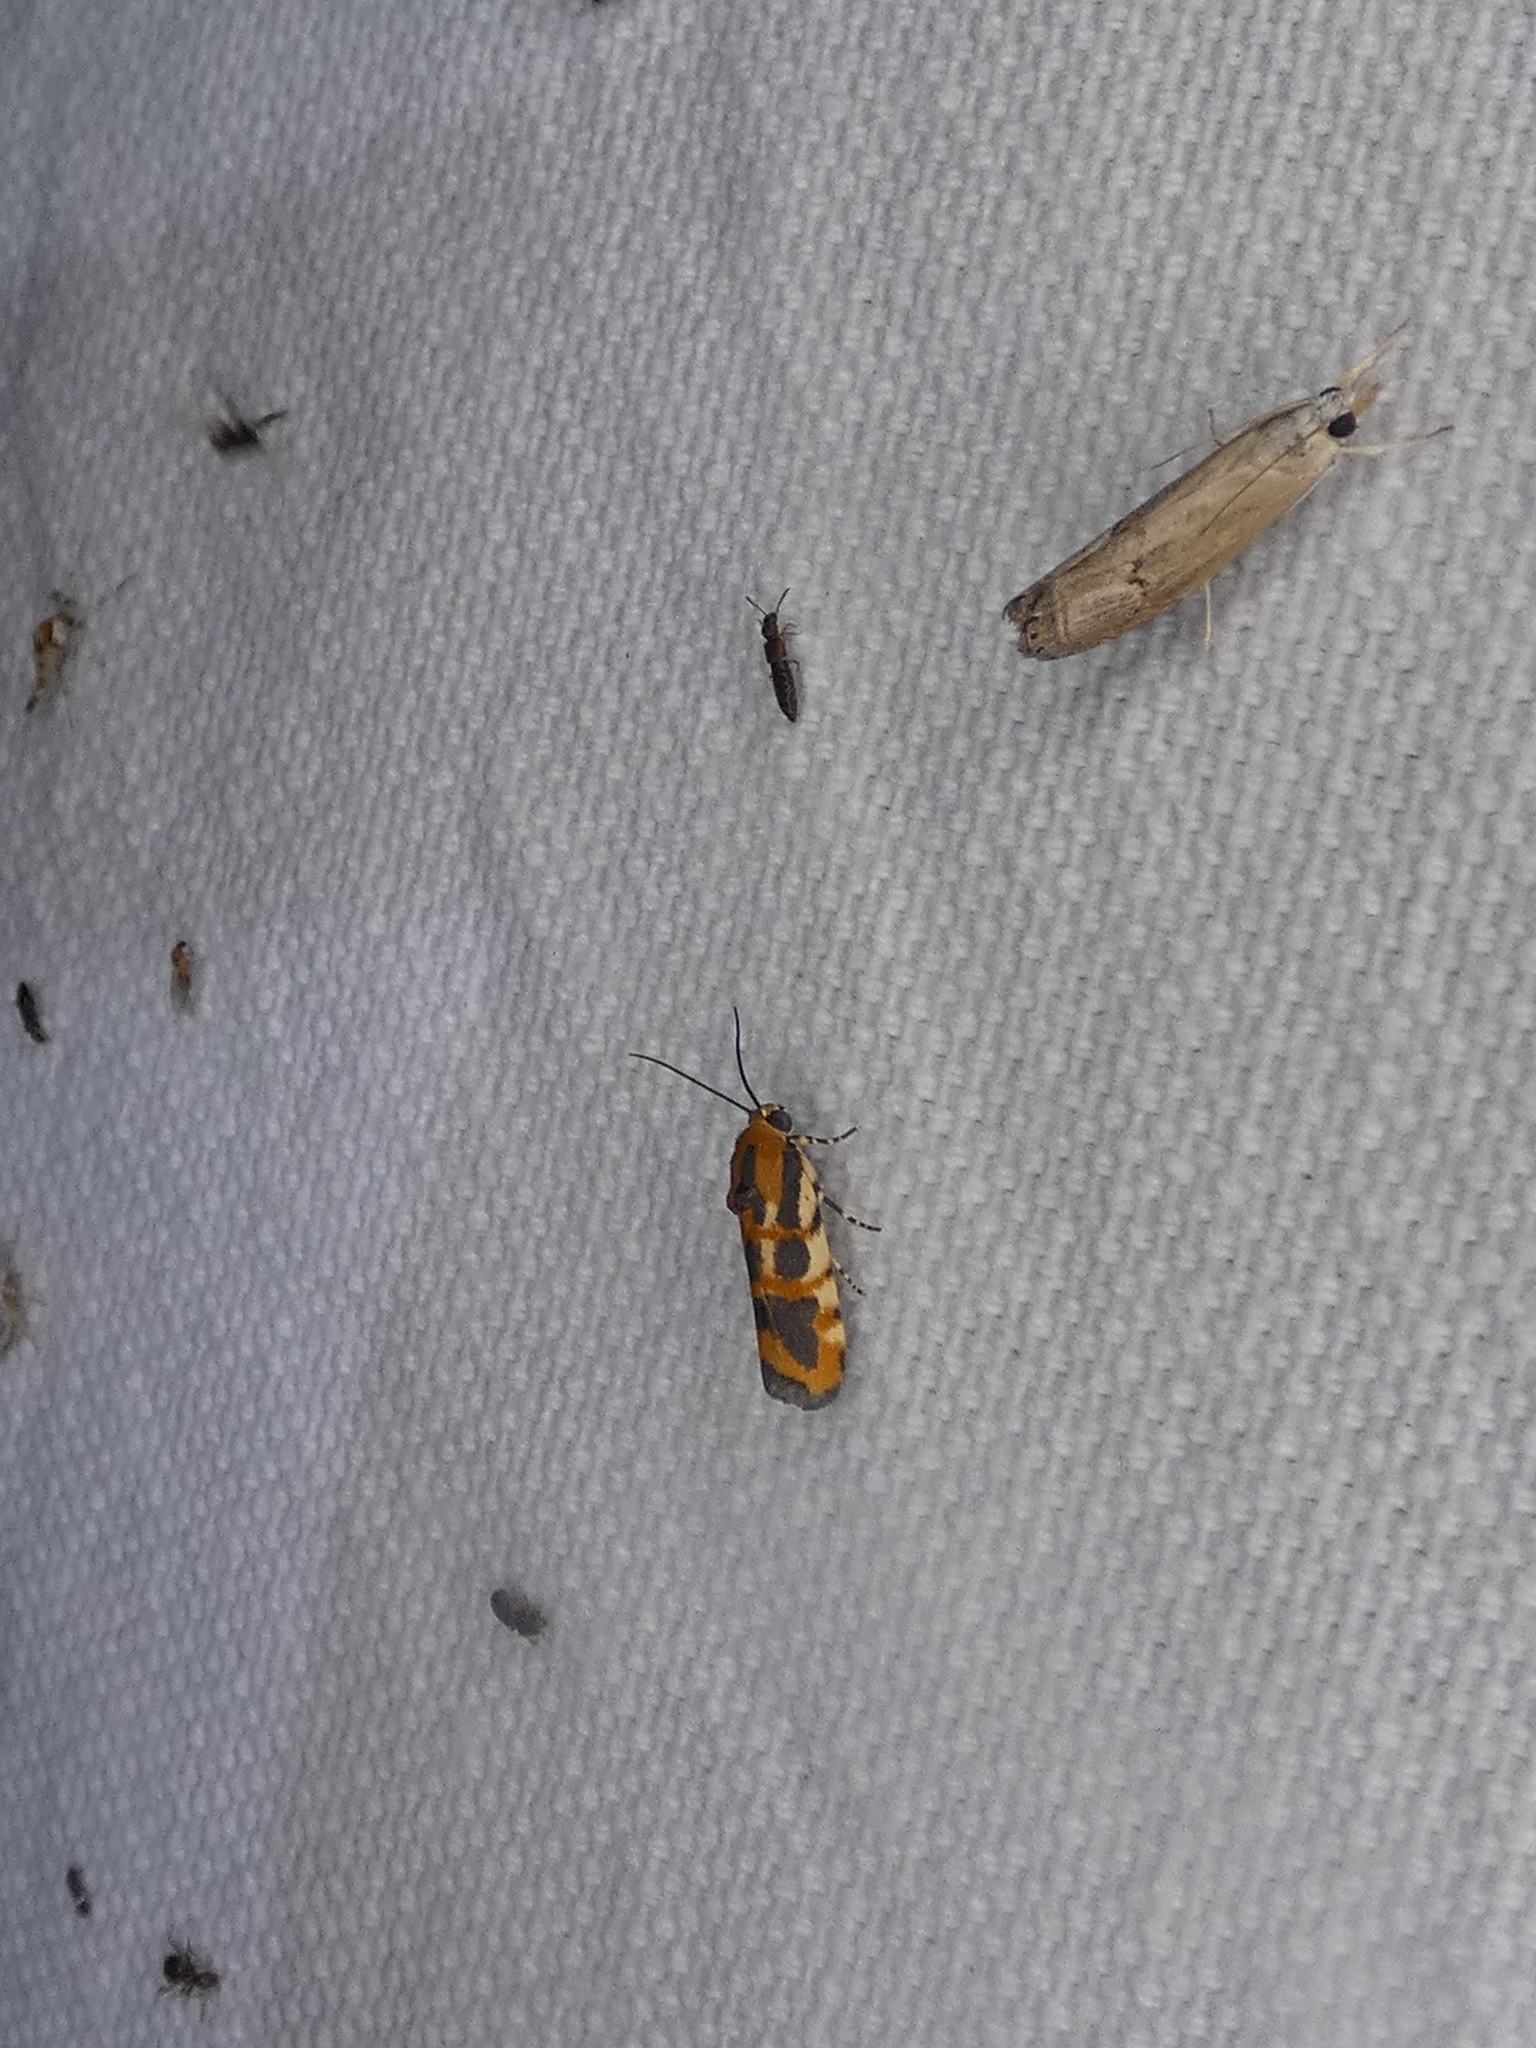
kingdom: Animalia
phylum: Arthropoda
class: Insecta
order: Lepidoptera
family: Noctuidae
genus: Acontia
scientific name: Acontia leo
